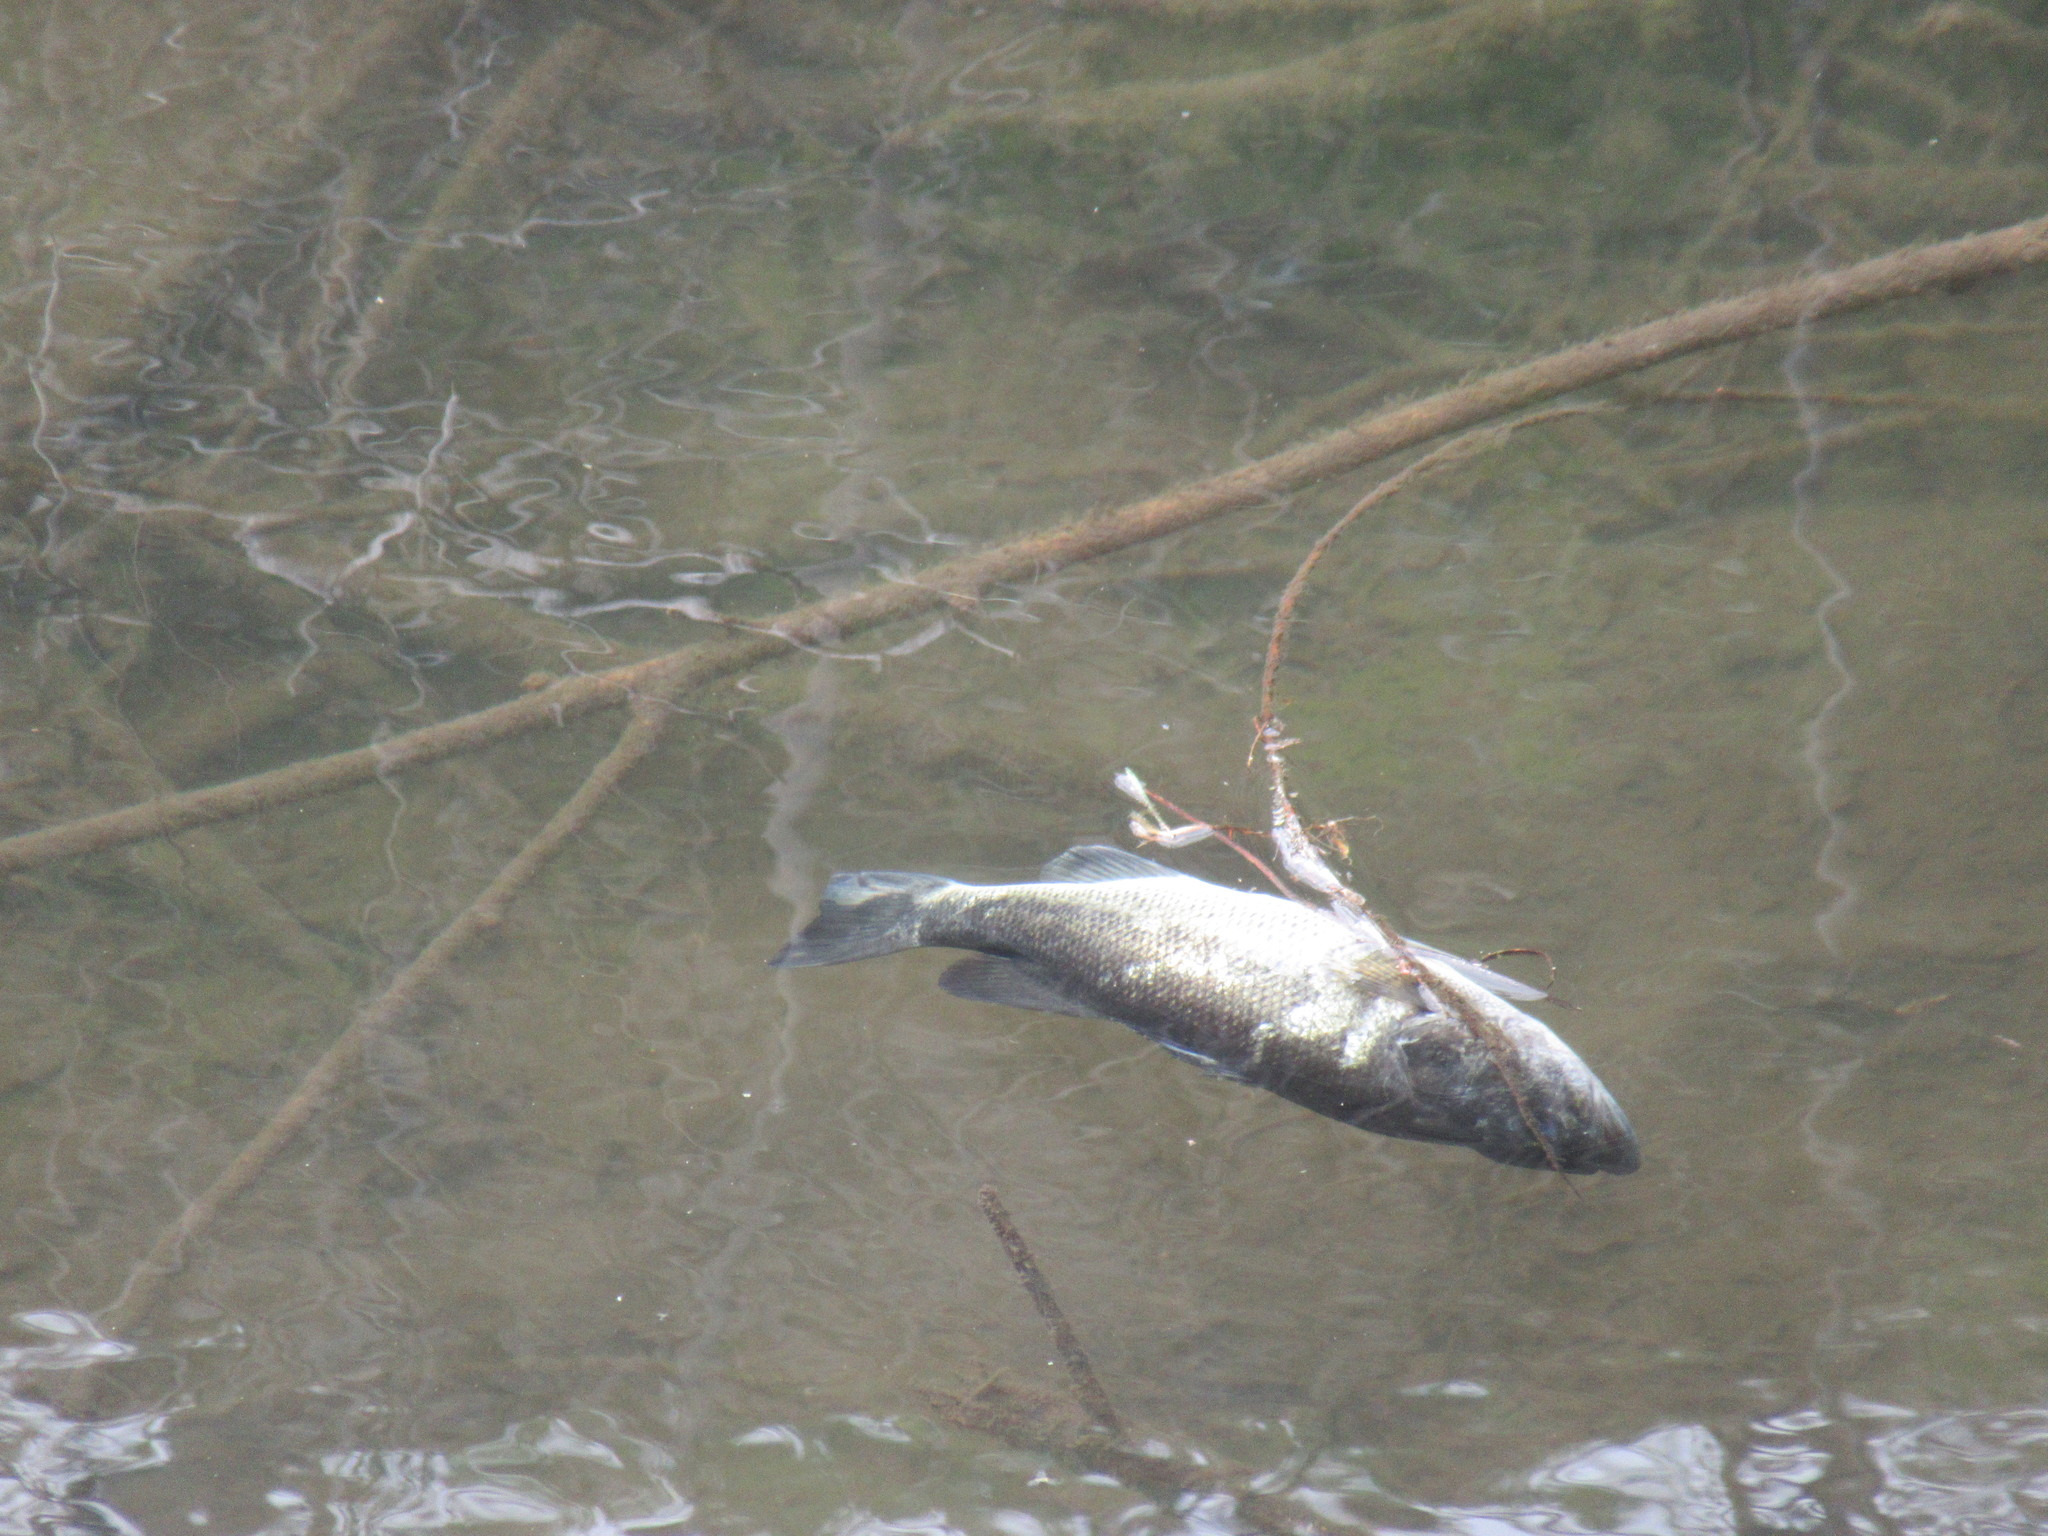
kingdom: Animalia
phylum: Chordata
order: Perciformes
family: Centrarchidae
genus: Micropterus
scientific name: Micropterus
